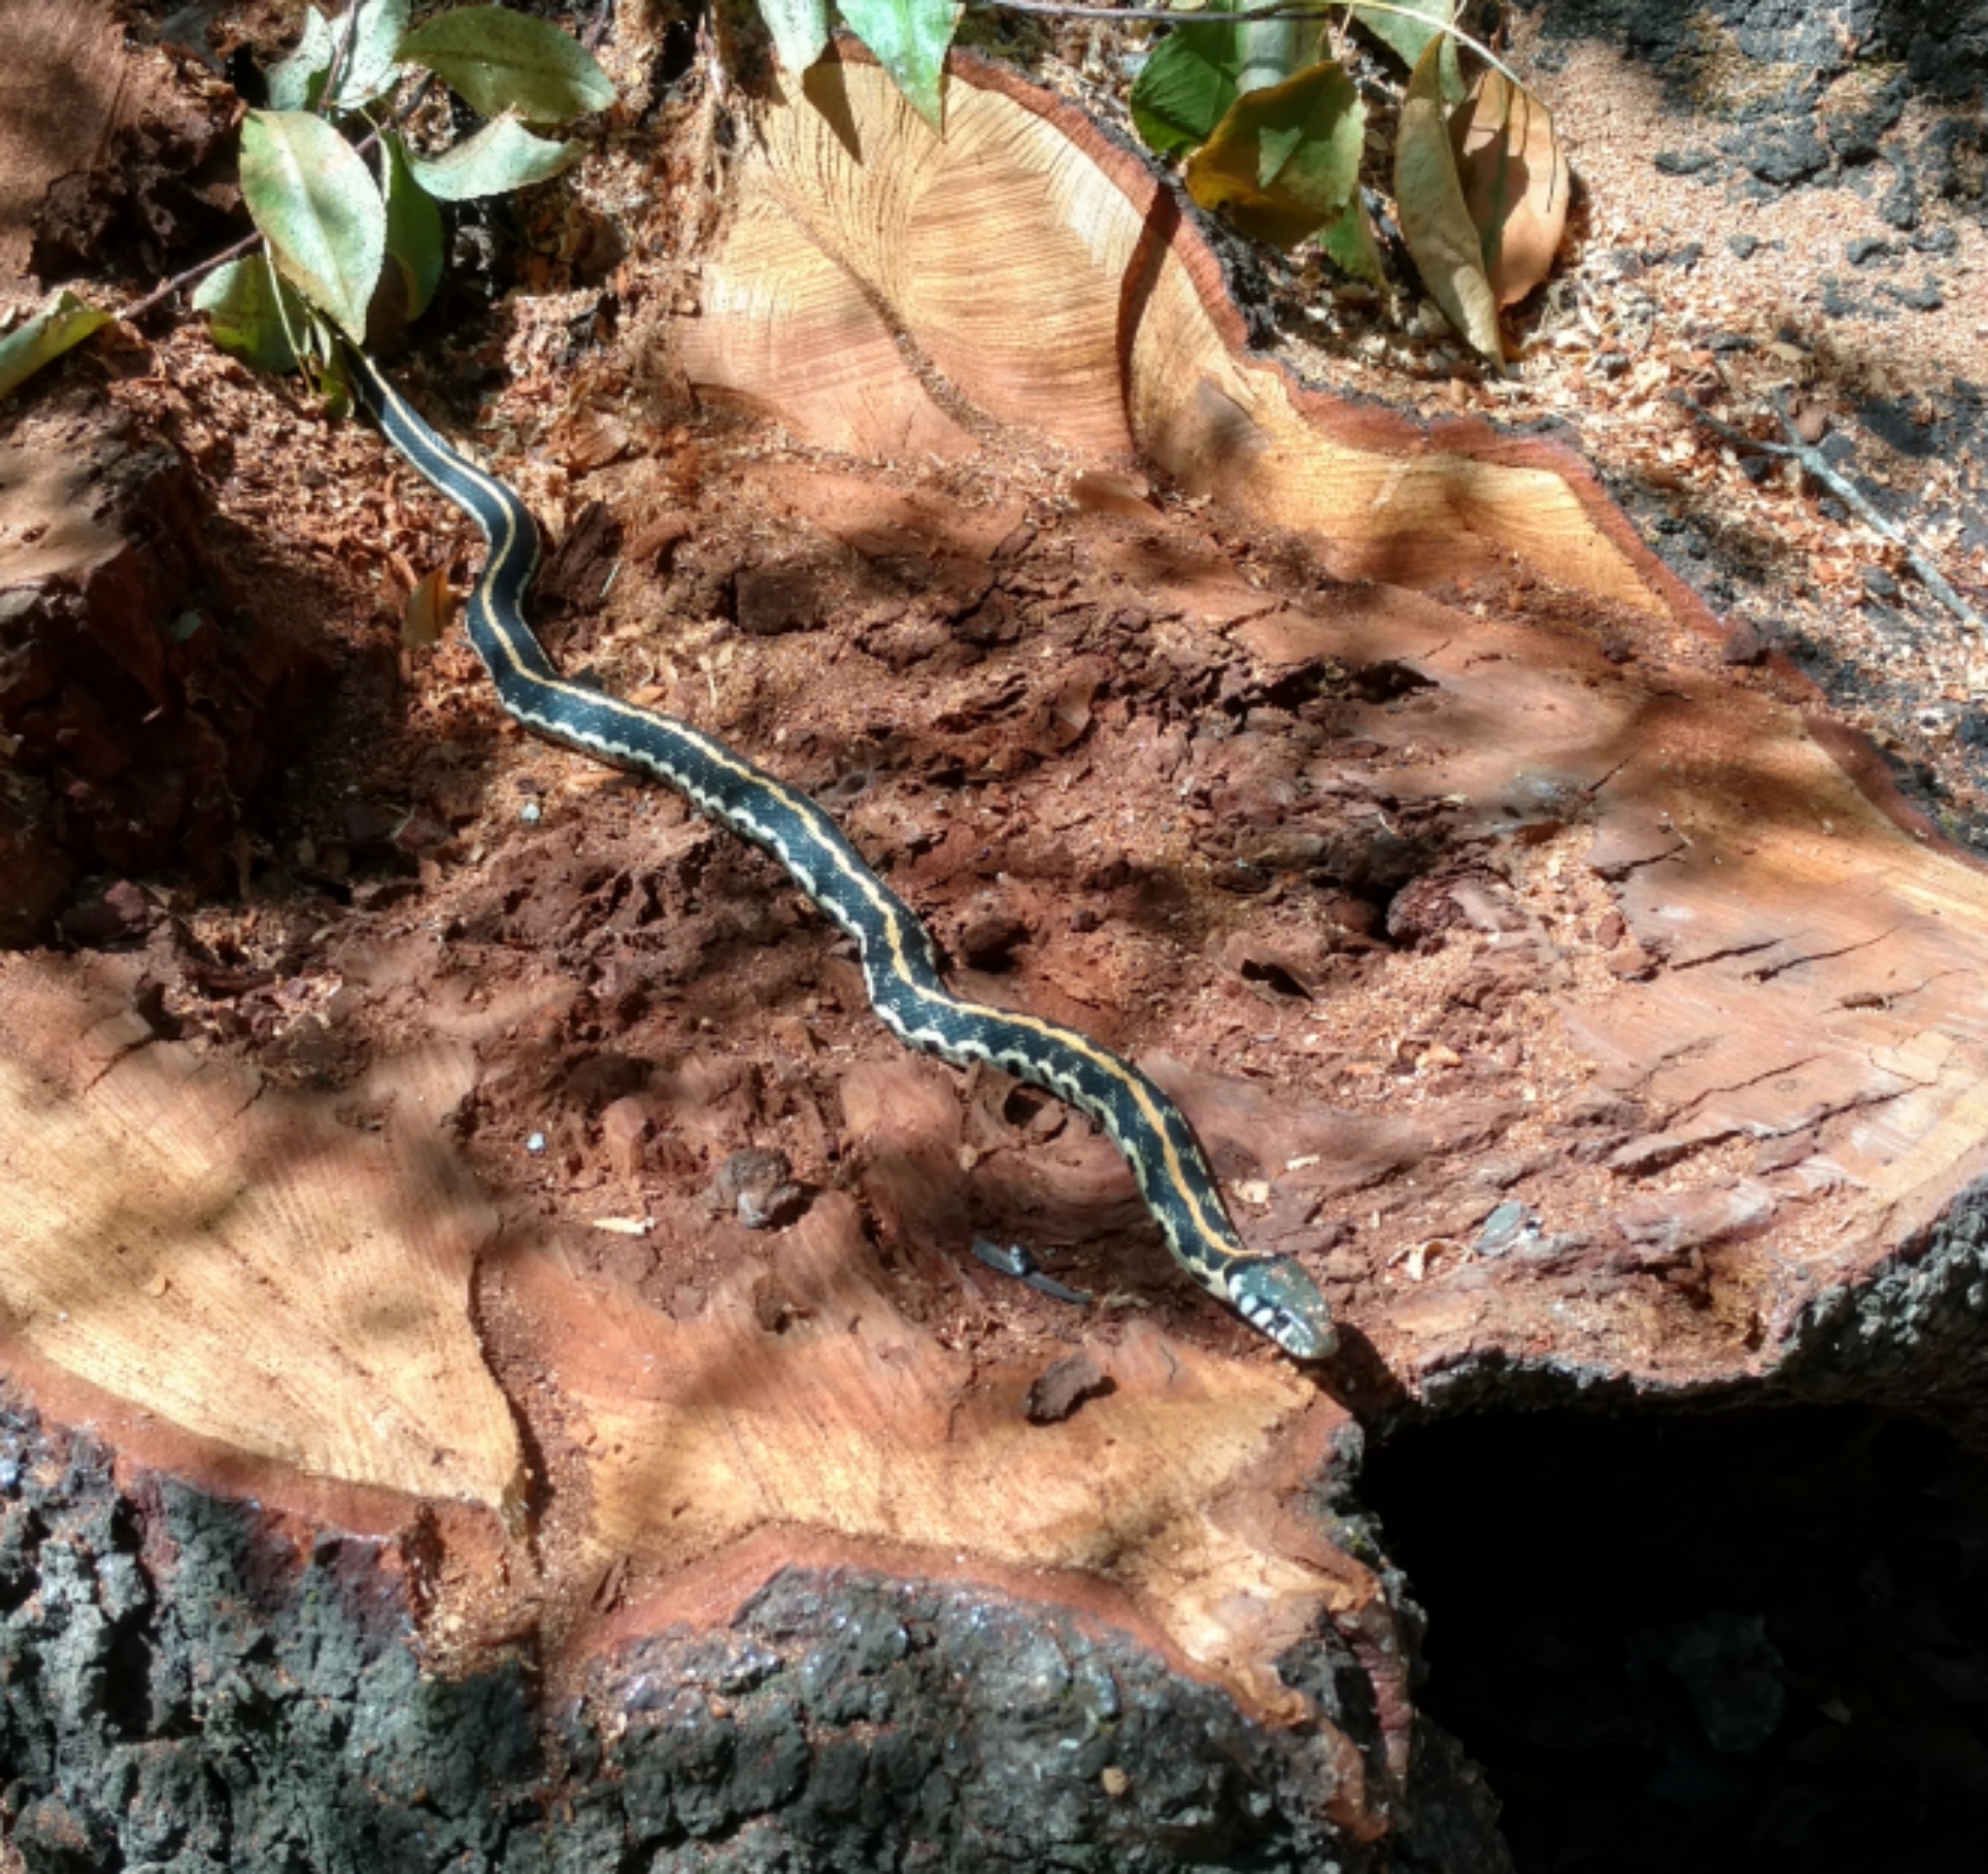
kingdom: Animalia
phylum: Chordata
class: Squamata
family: Colubridae
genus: Thamnophis
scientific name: Thamnophis cyrtopsis
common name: Black-necked gartersnake
